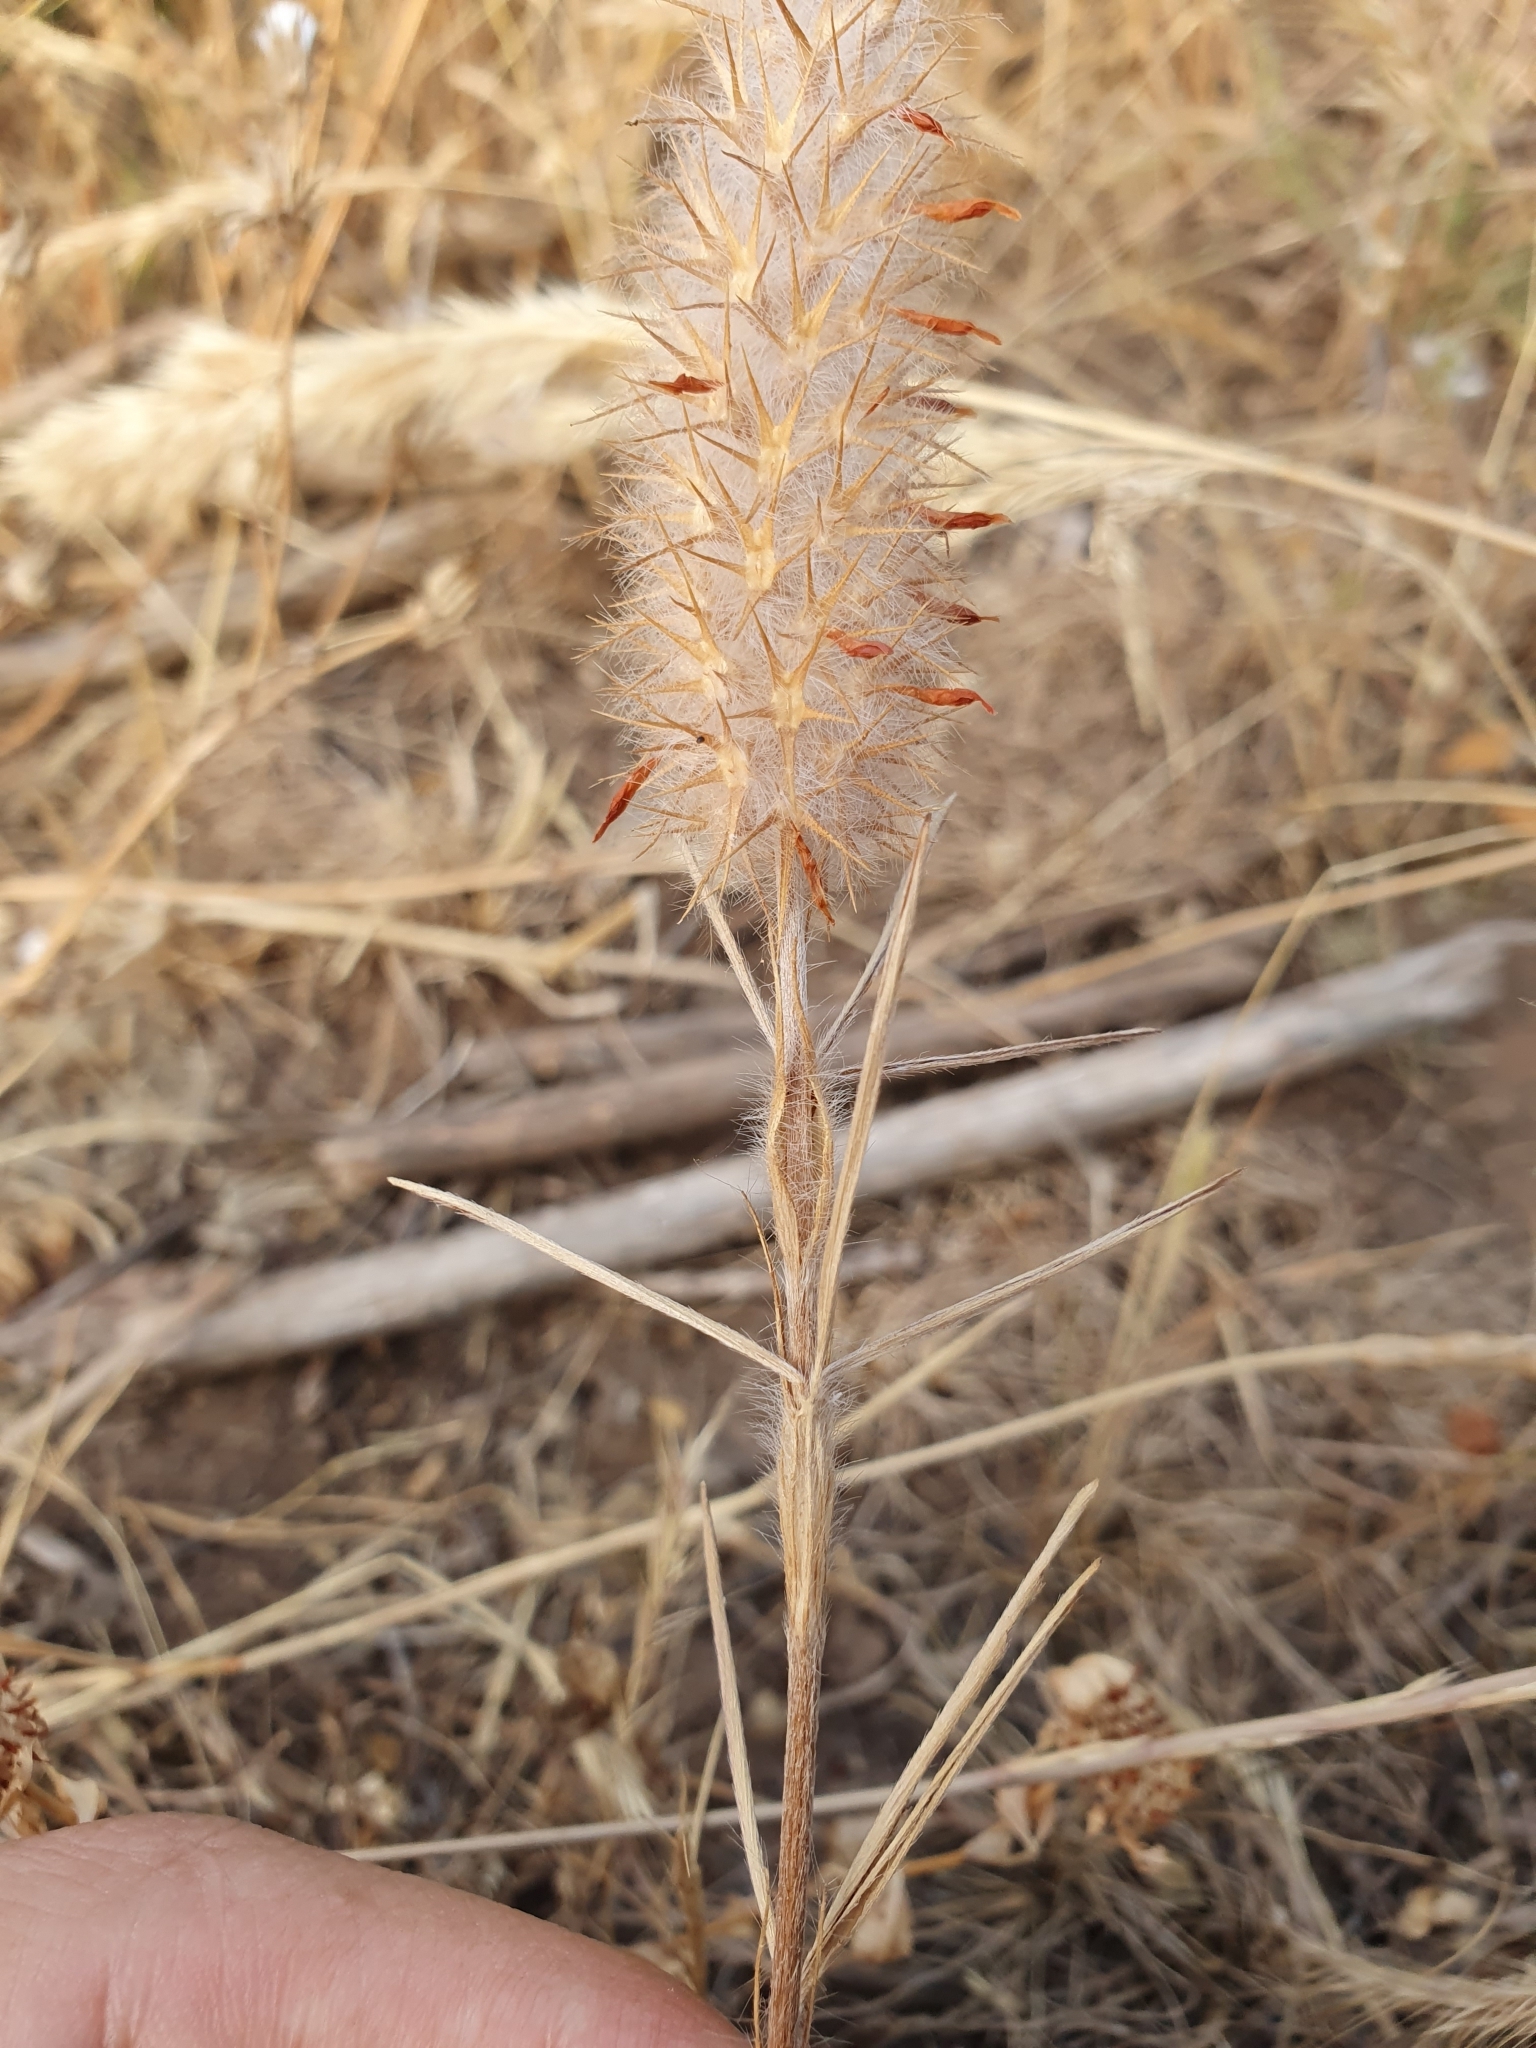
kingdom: Plantae
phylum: Tracheophyta
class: Magnoliopsida
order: Fabales
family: Fabaceae
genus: Trifolium
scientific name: Trifolium angustifolium
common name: Narrow clover
